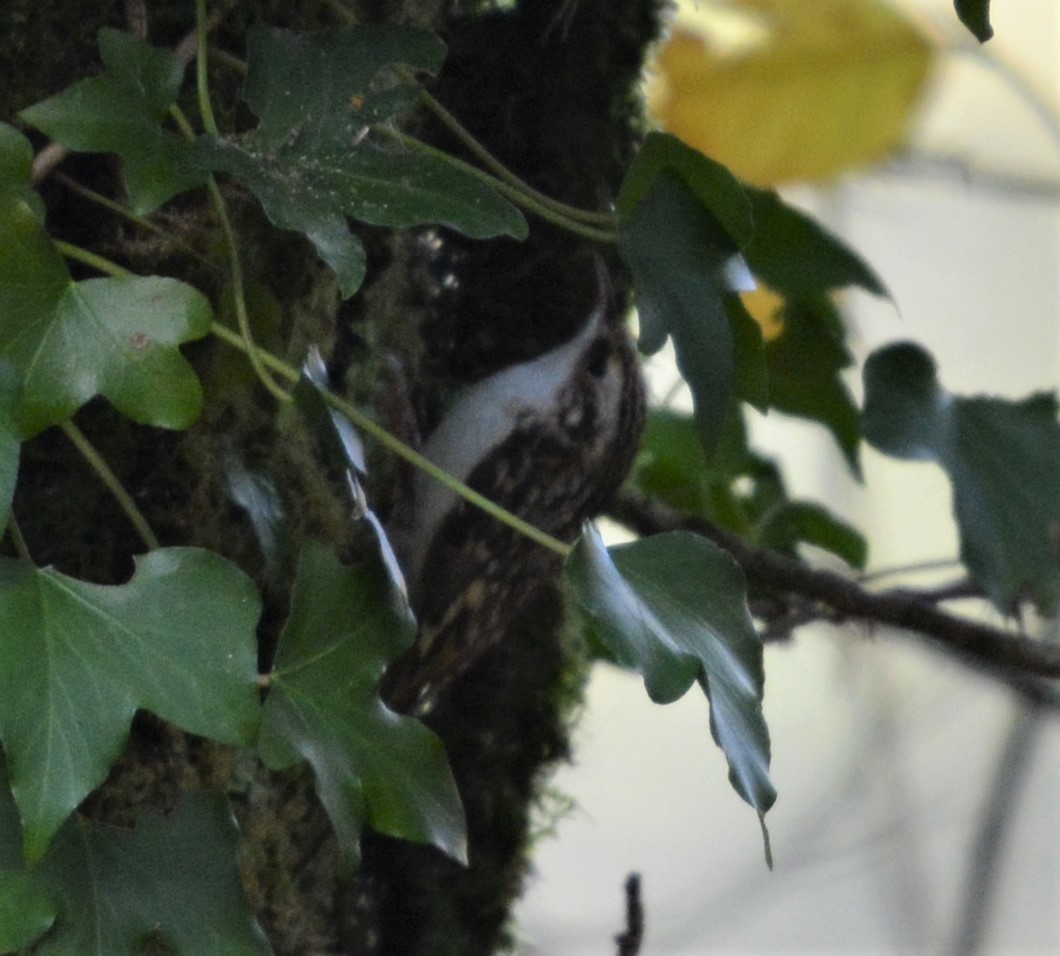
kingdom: Animalia
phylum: Chordata
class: Aves
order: Passeriformes
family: Certhiidae
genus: Certhia
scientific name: Certhia familiaris
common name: Eurasian treecreeper
